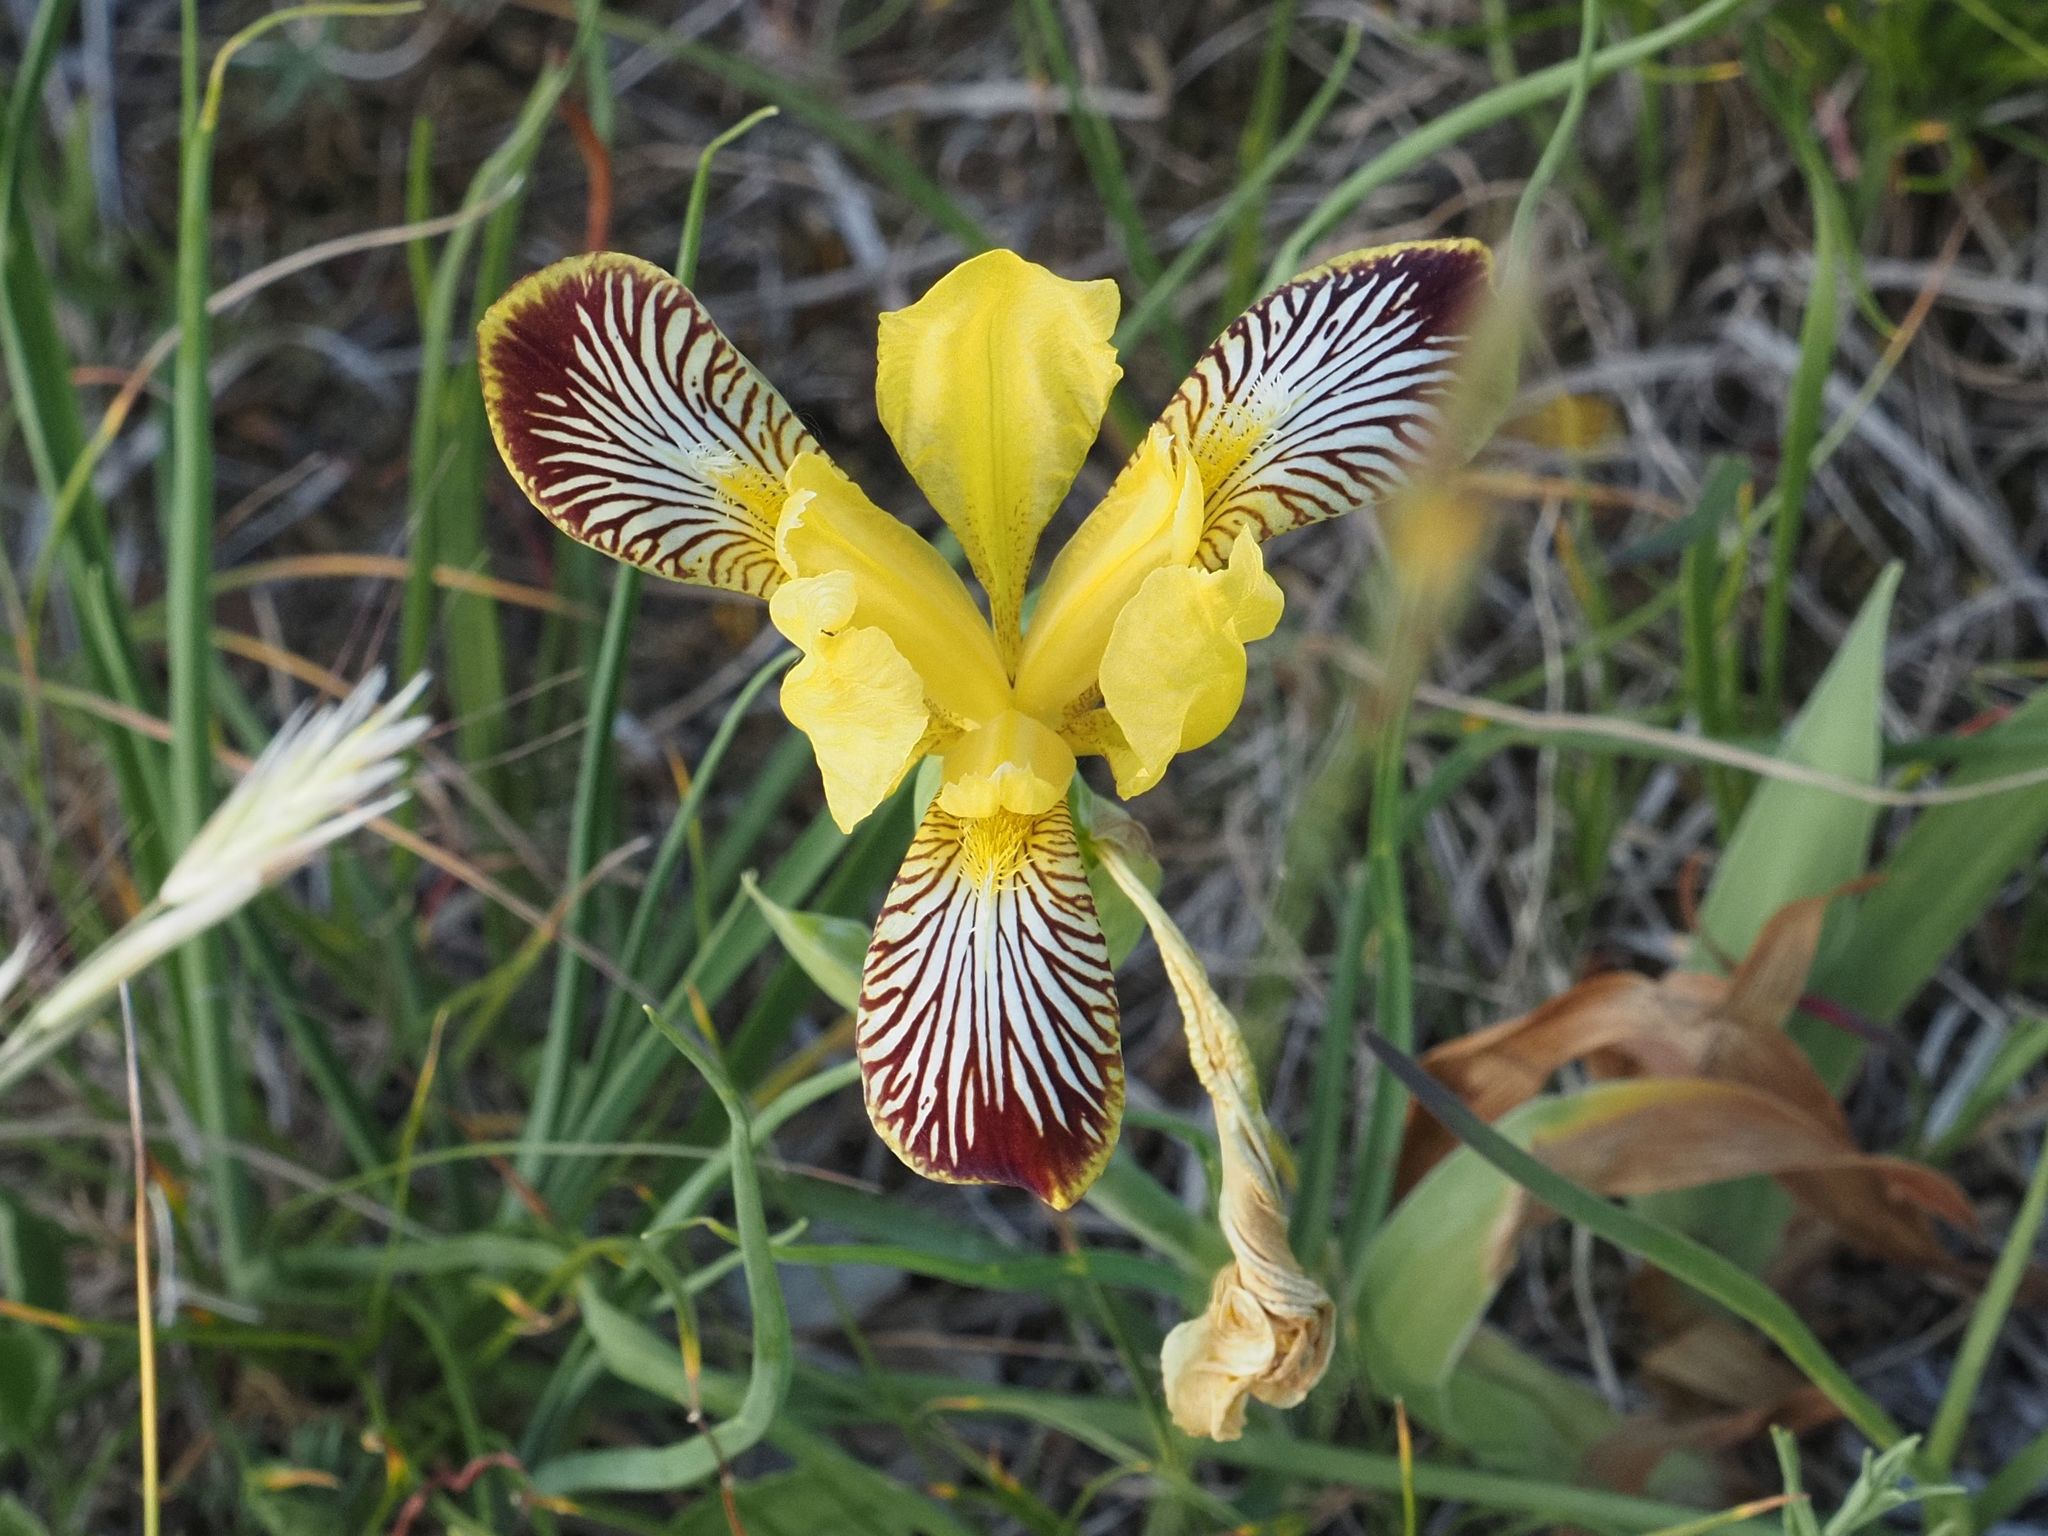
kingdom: Plantae
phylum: Tracheophyta
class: Liliopsida
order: Asparagales
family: Iridaceae
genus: Iris
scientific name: Iris variegata
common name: Hungarian iris
